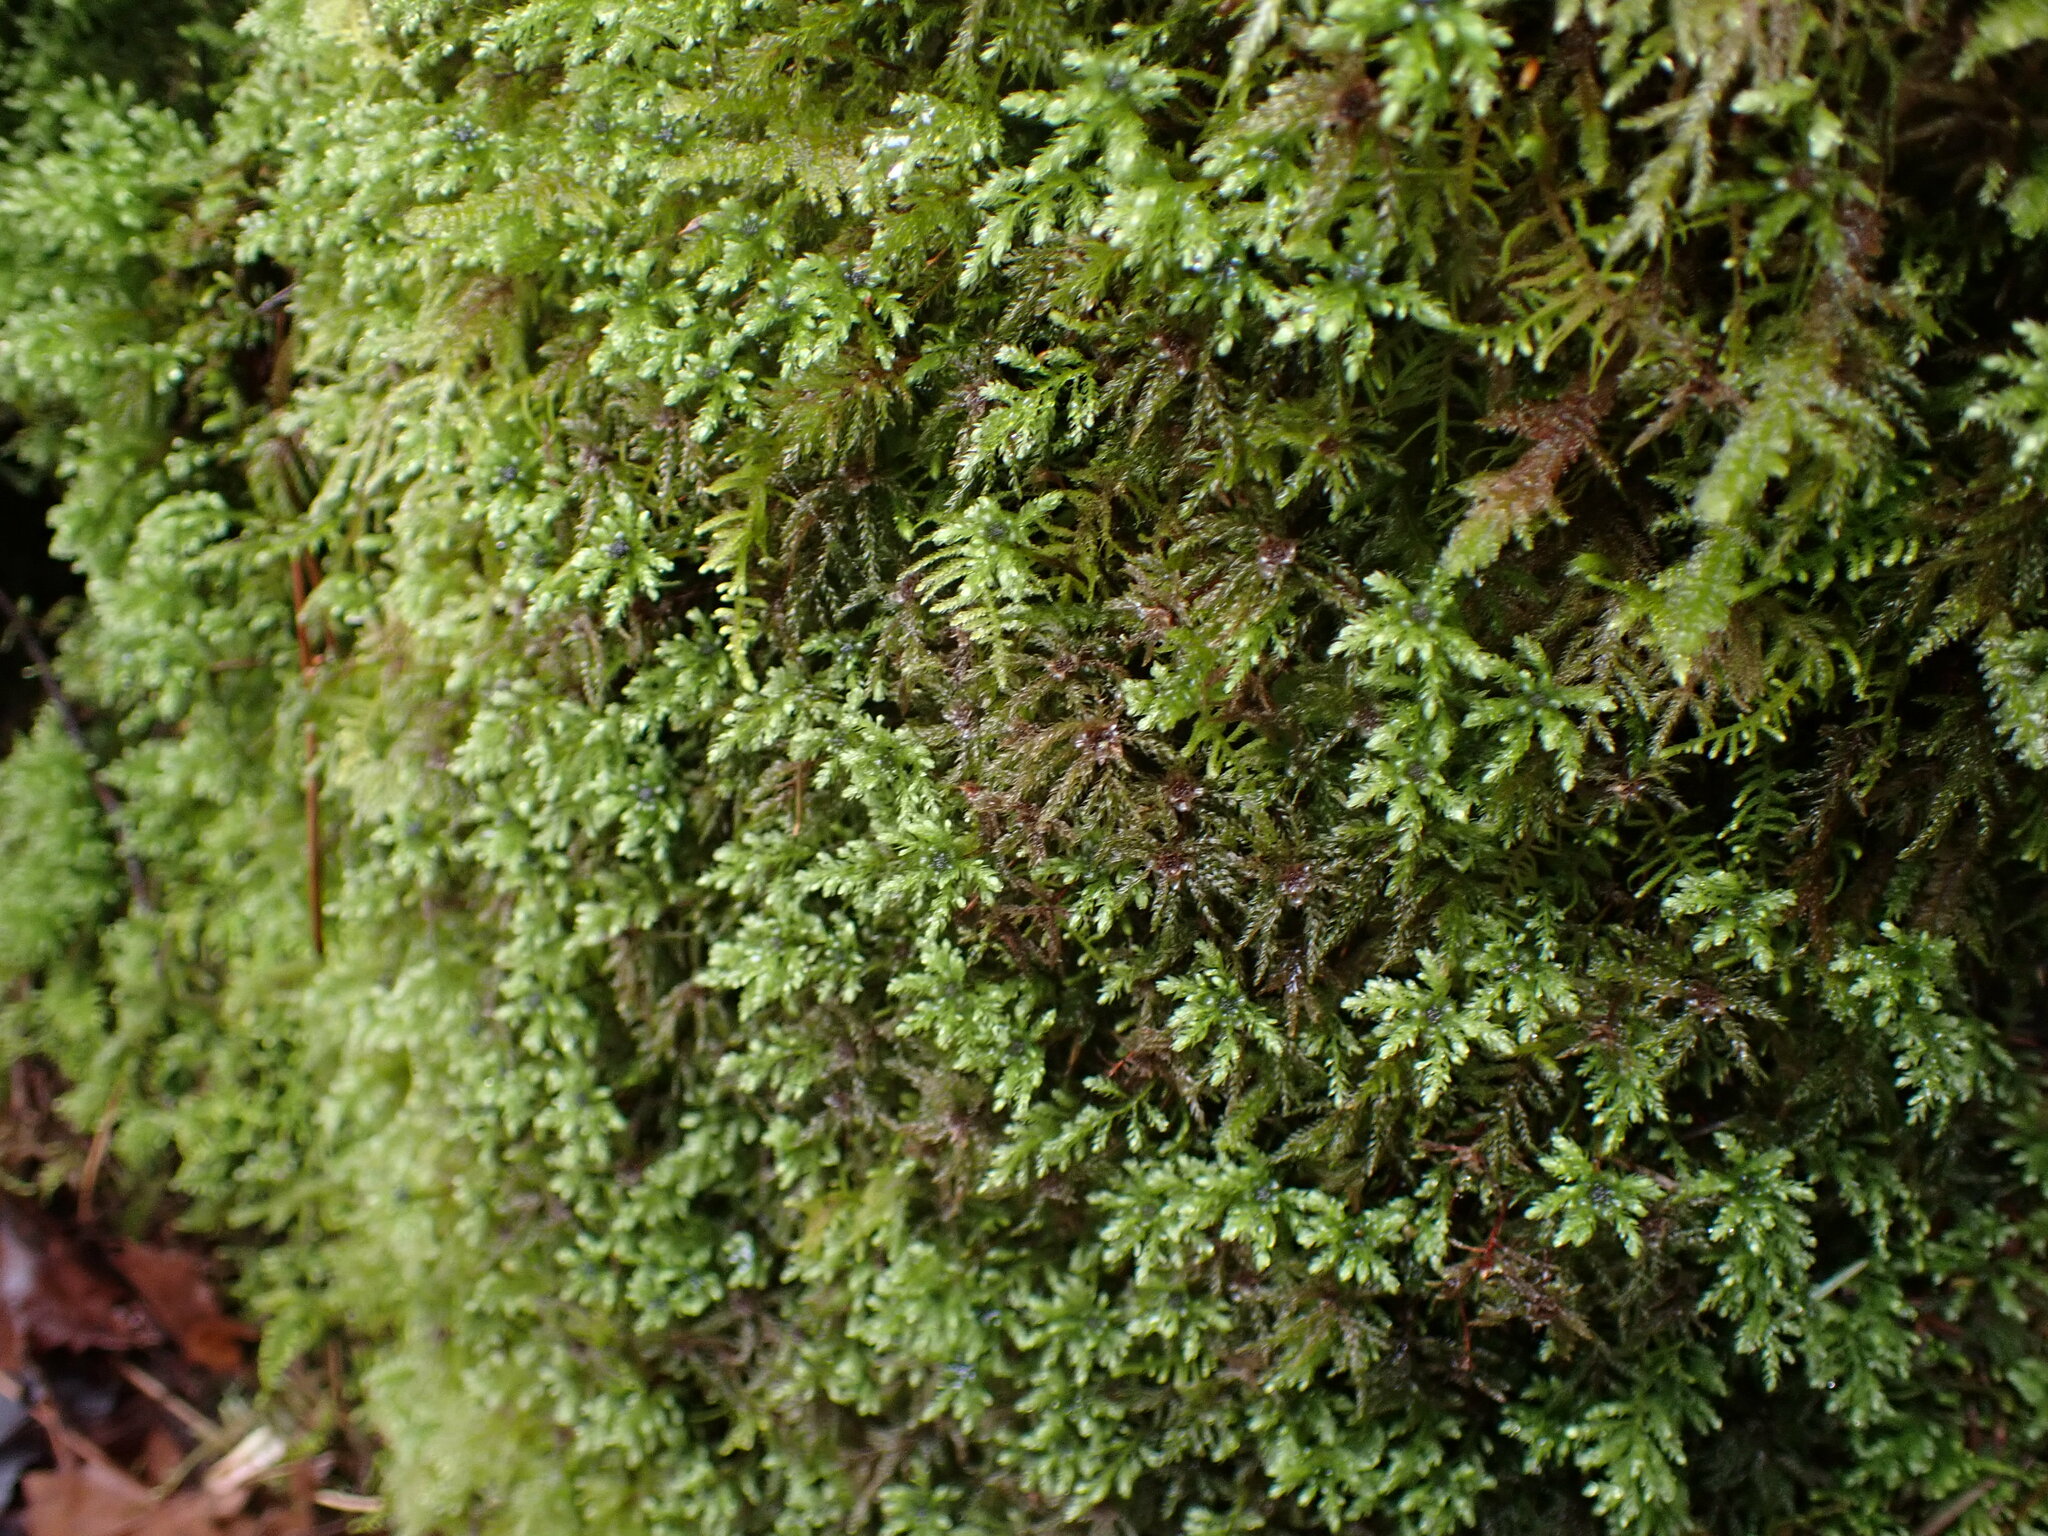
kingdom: Plantae
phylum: Bryophyta
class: Bryopsida
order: Bryales
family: Mniaceae
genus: Leucolepis
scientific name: Leucolepis acanthoneura
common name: Leucolepis umbrella moss
